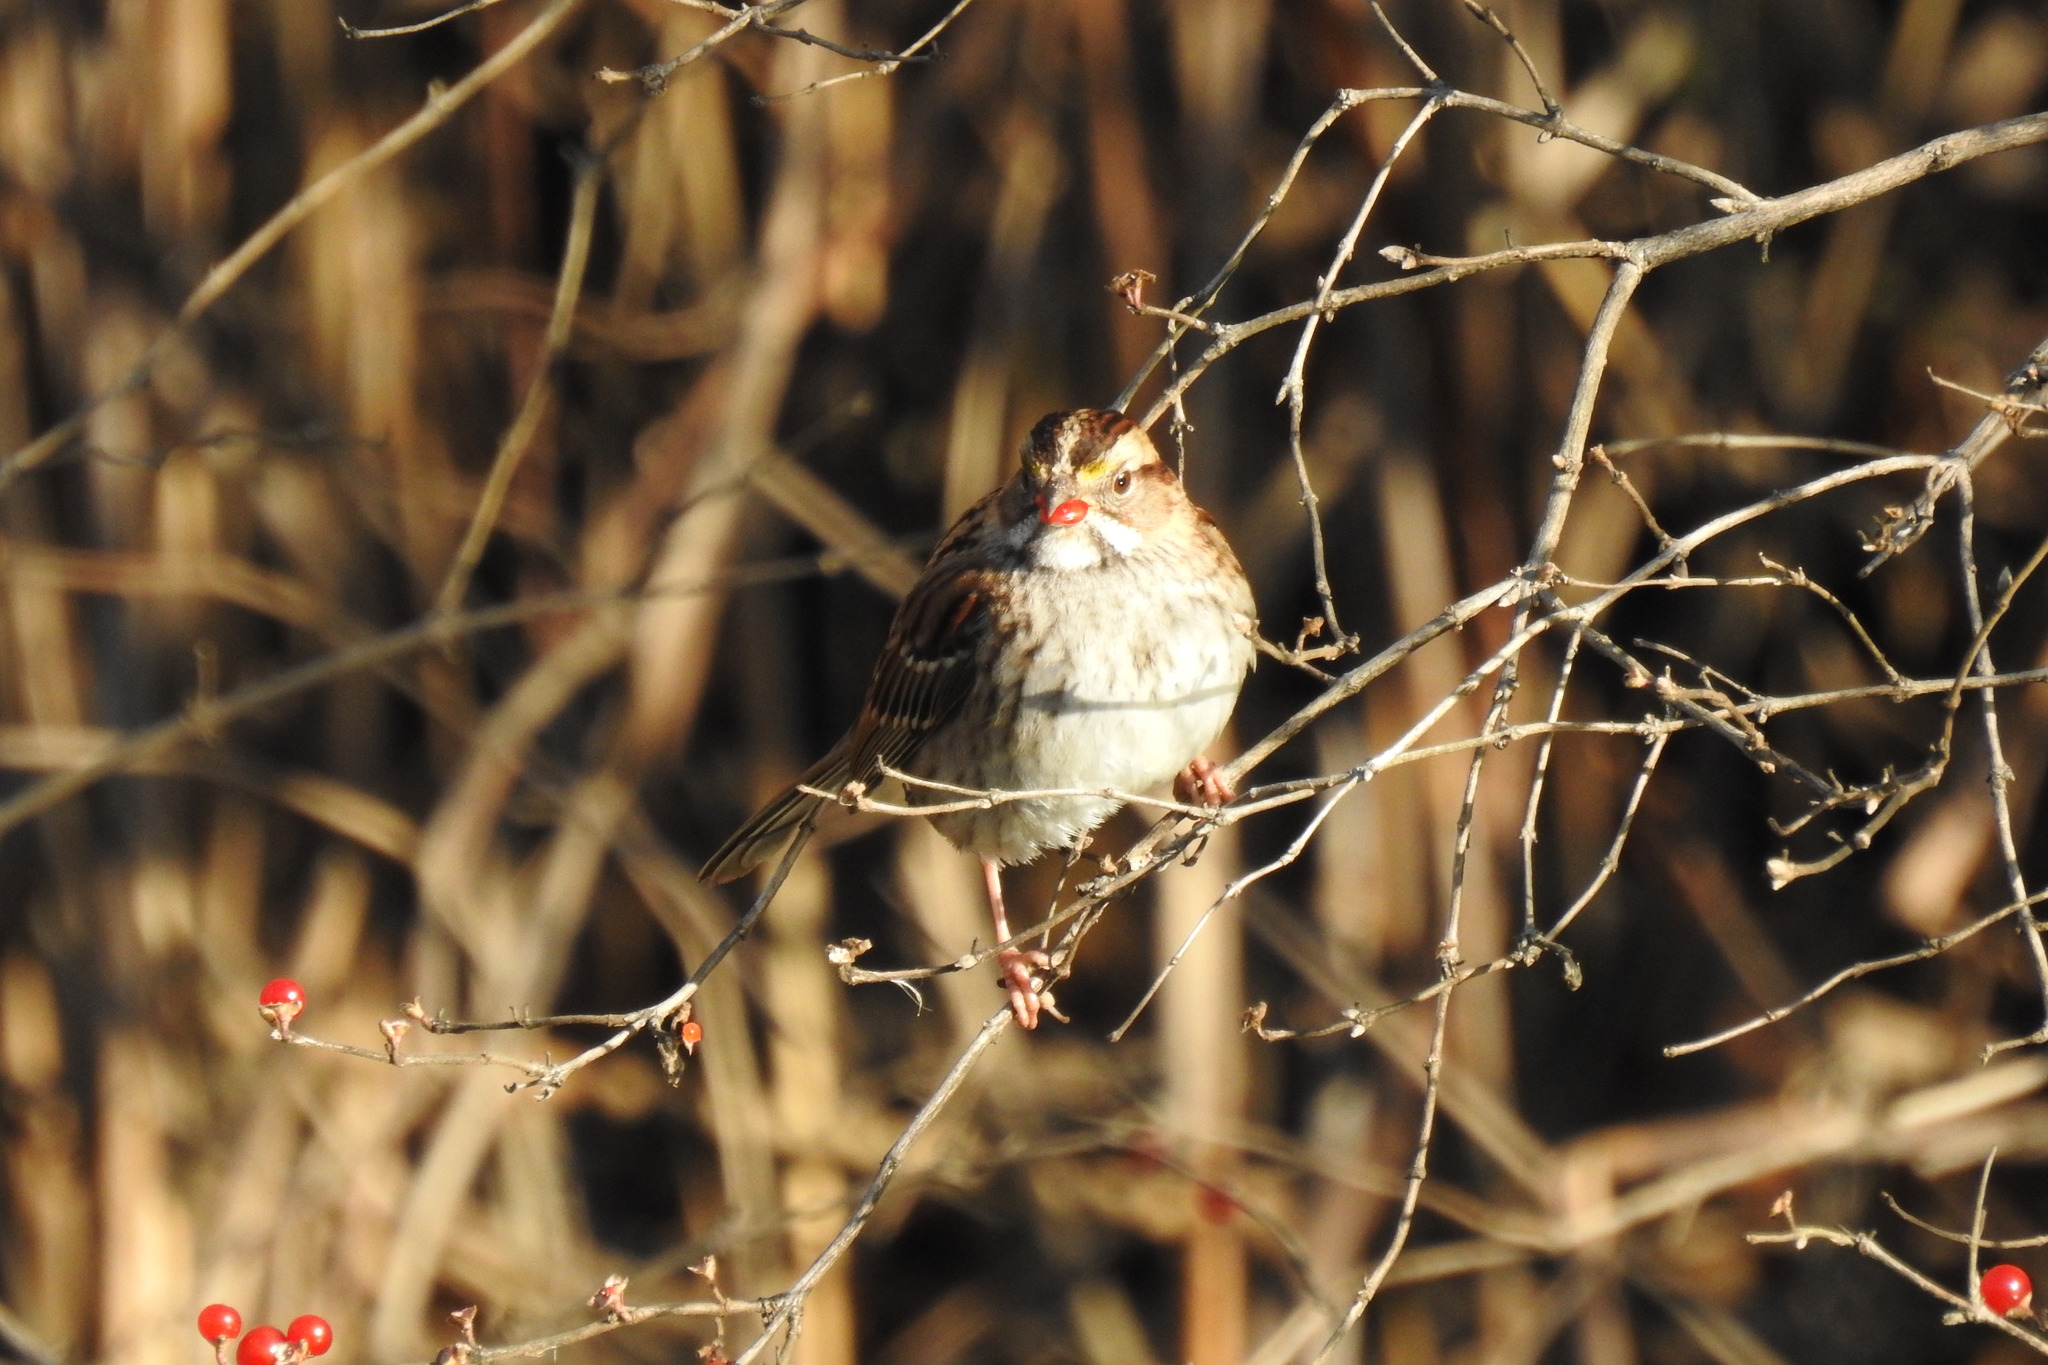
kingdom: Animalia
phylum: Chordata
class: Aves
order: Passeriformes
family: Passerellidae
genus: Zonotrichia
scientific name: Zonotrichia albicollis
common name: White-throated sparrow
